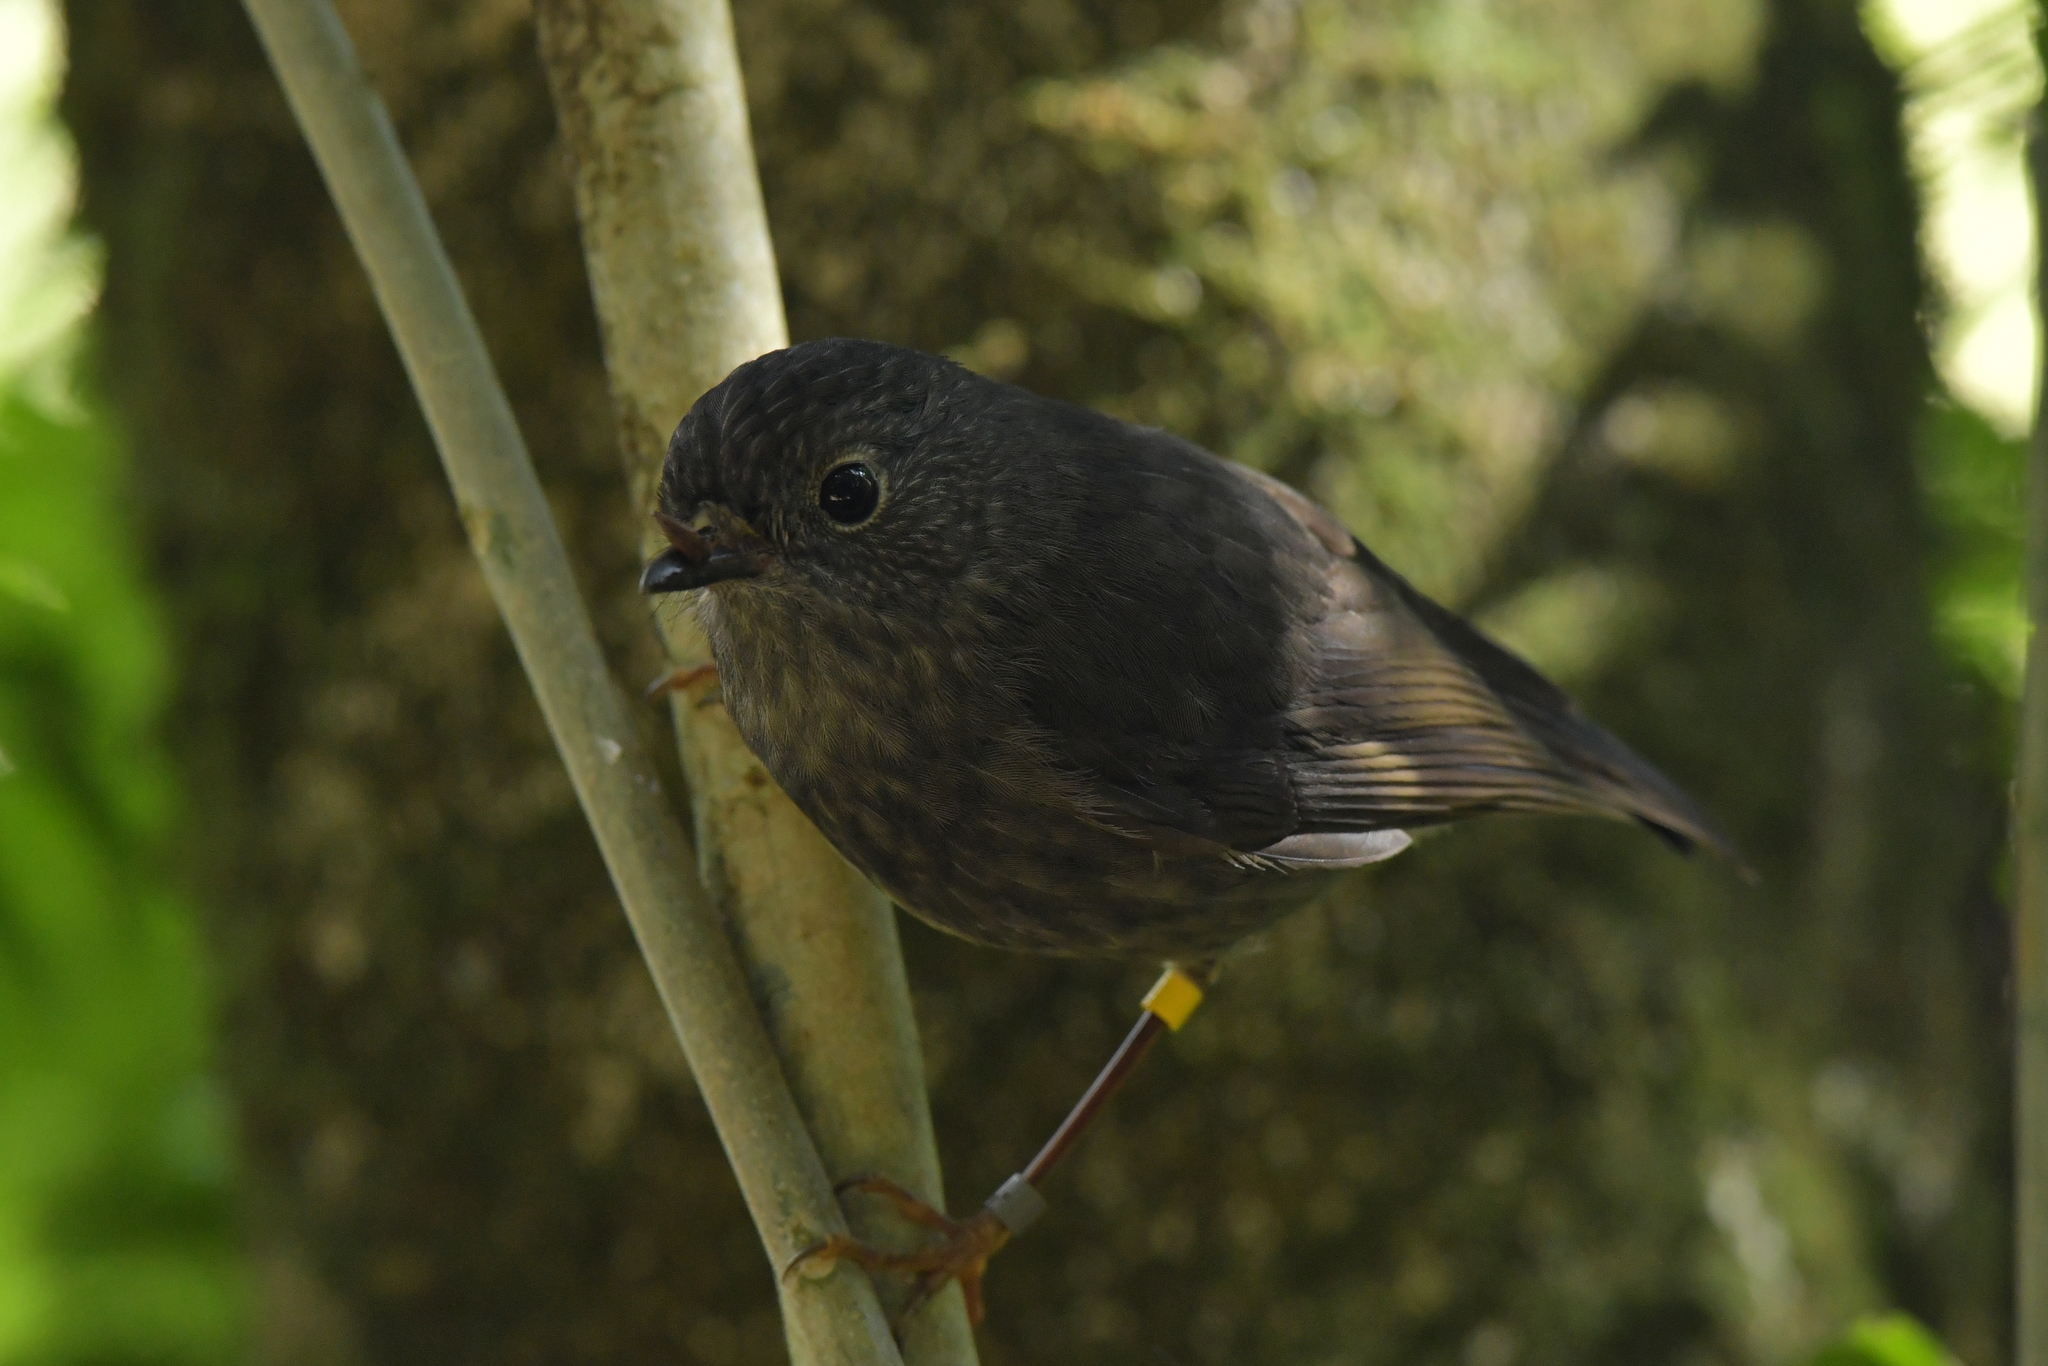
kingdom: Animalia
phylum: Chordata
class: Aves
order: Passeriformes
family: Petroicidae
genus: Petroica
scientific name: Petroica australis
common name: New zealand robin
